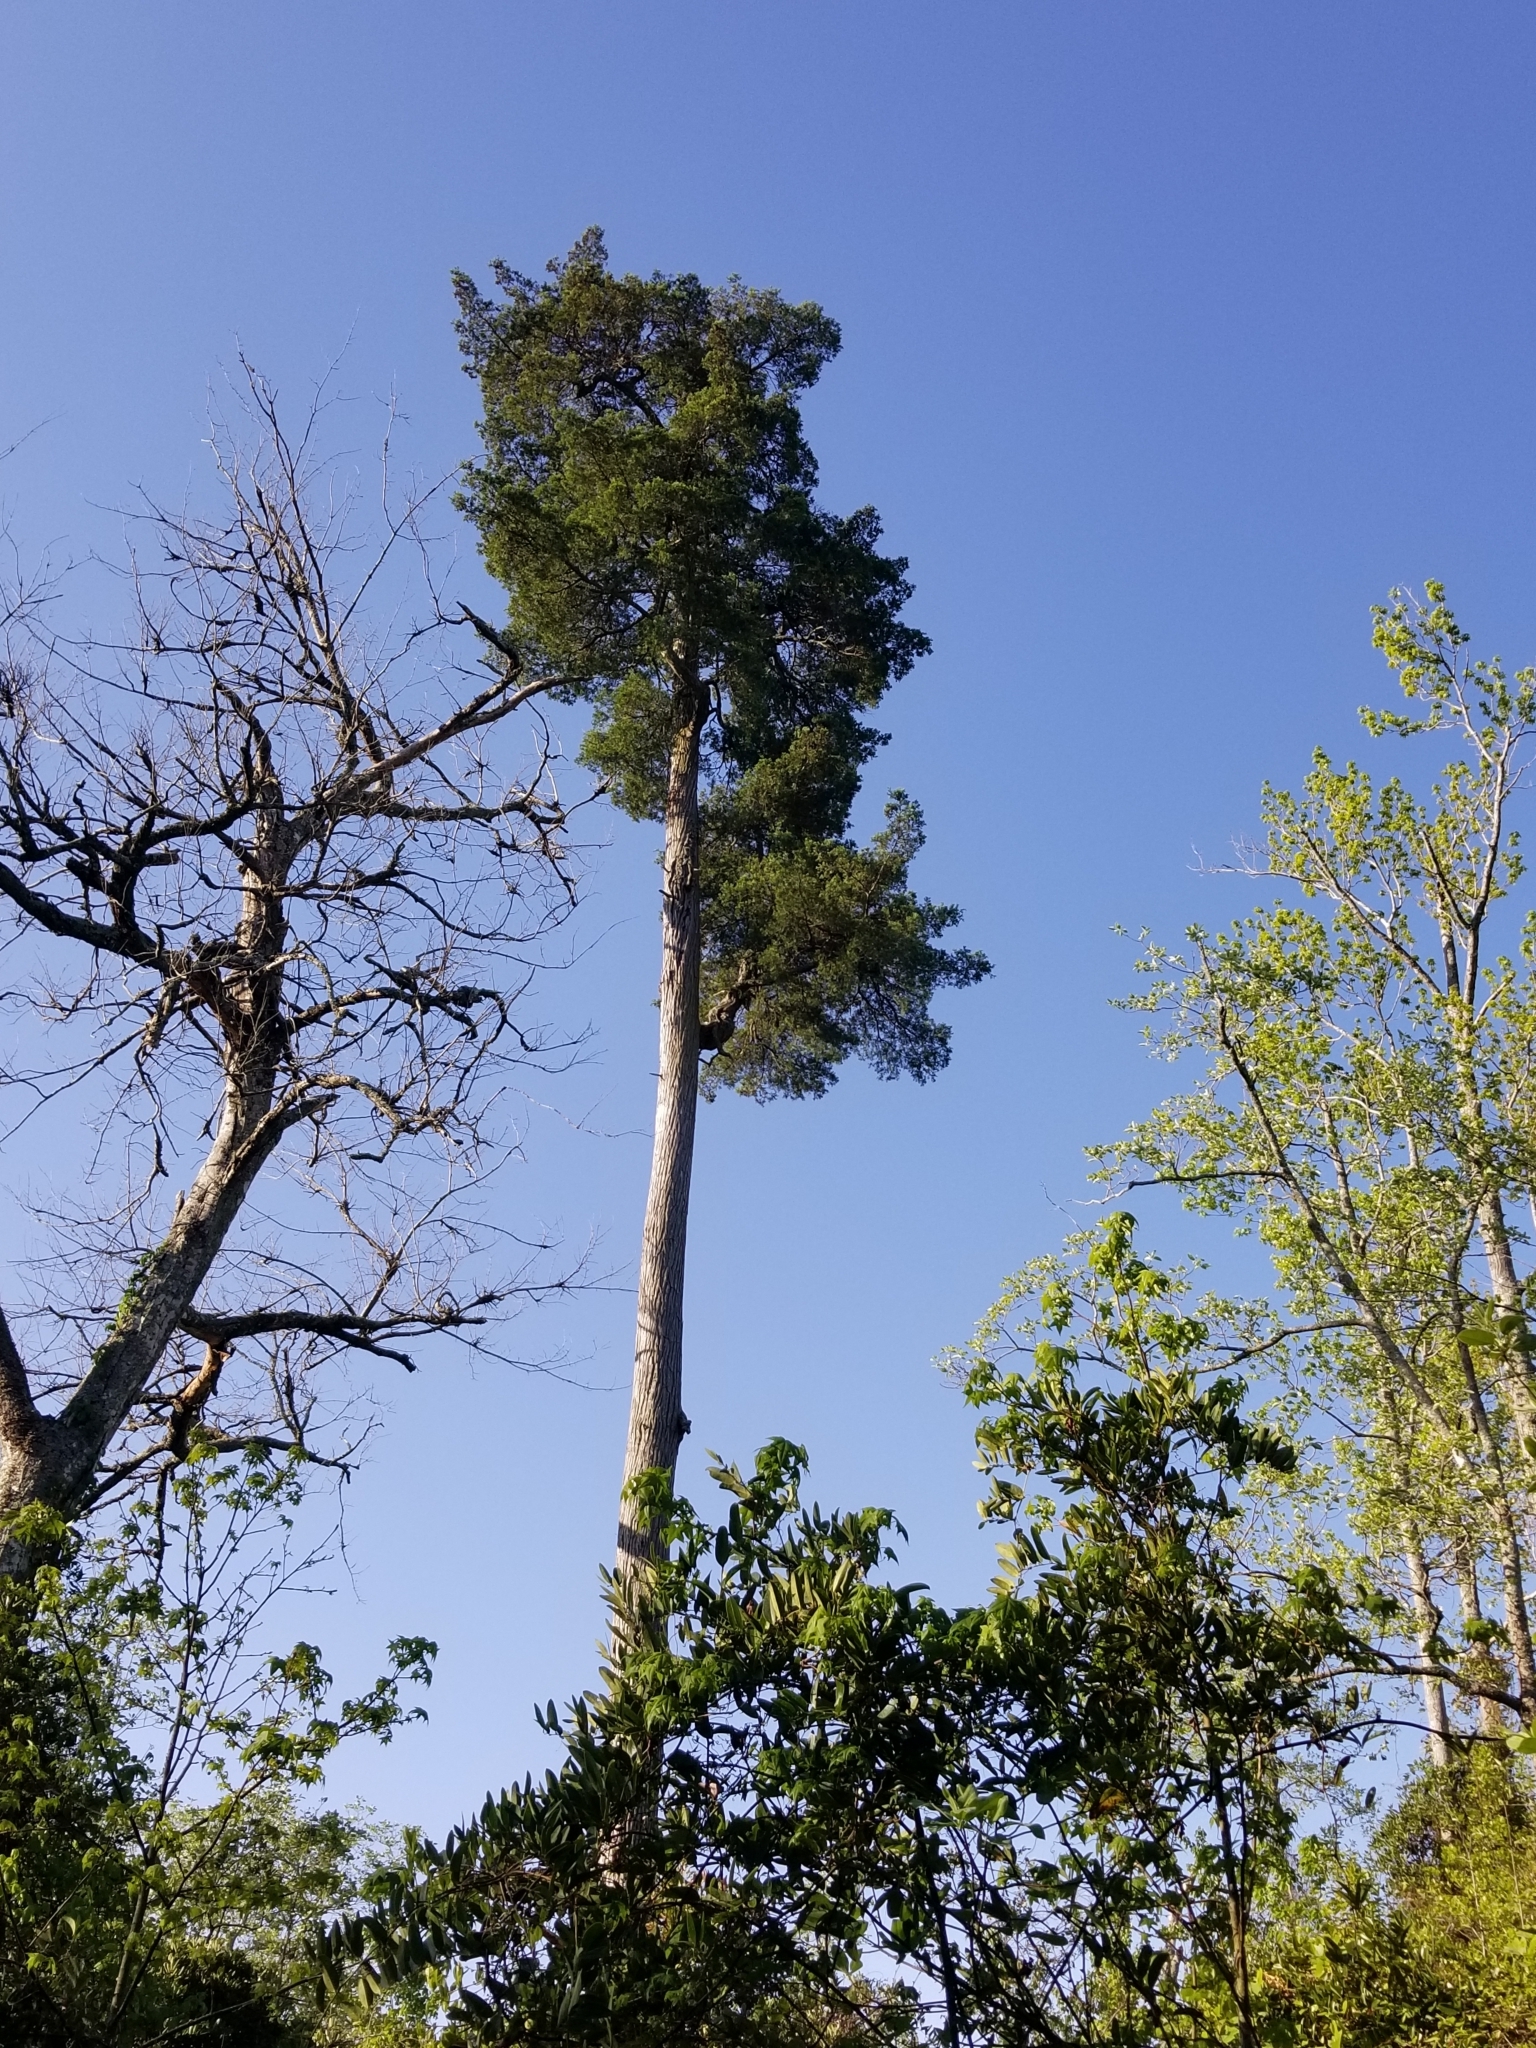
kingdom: Plantae
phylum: Tracheophyta
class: Pinopsida
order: Pinales
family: Cupressaceae
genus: Chamaecyparis
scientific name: Chamaecyparis thyoides
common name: Atlantic white cedar
